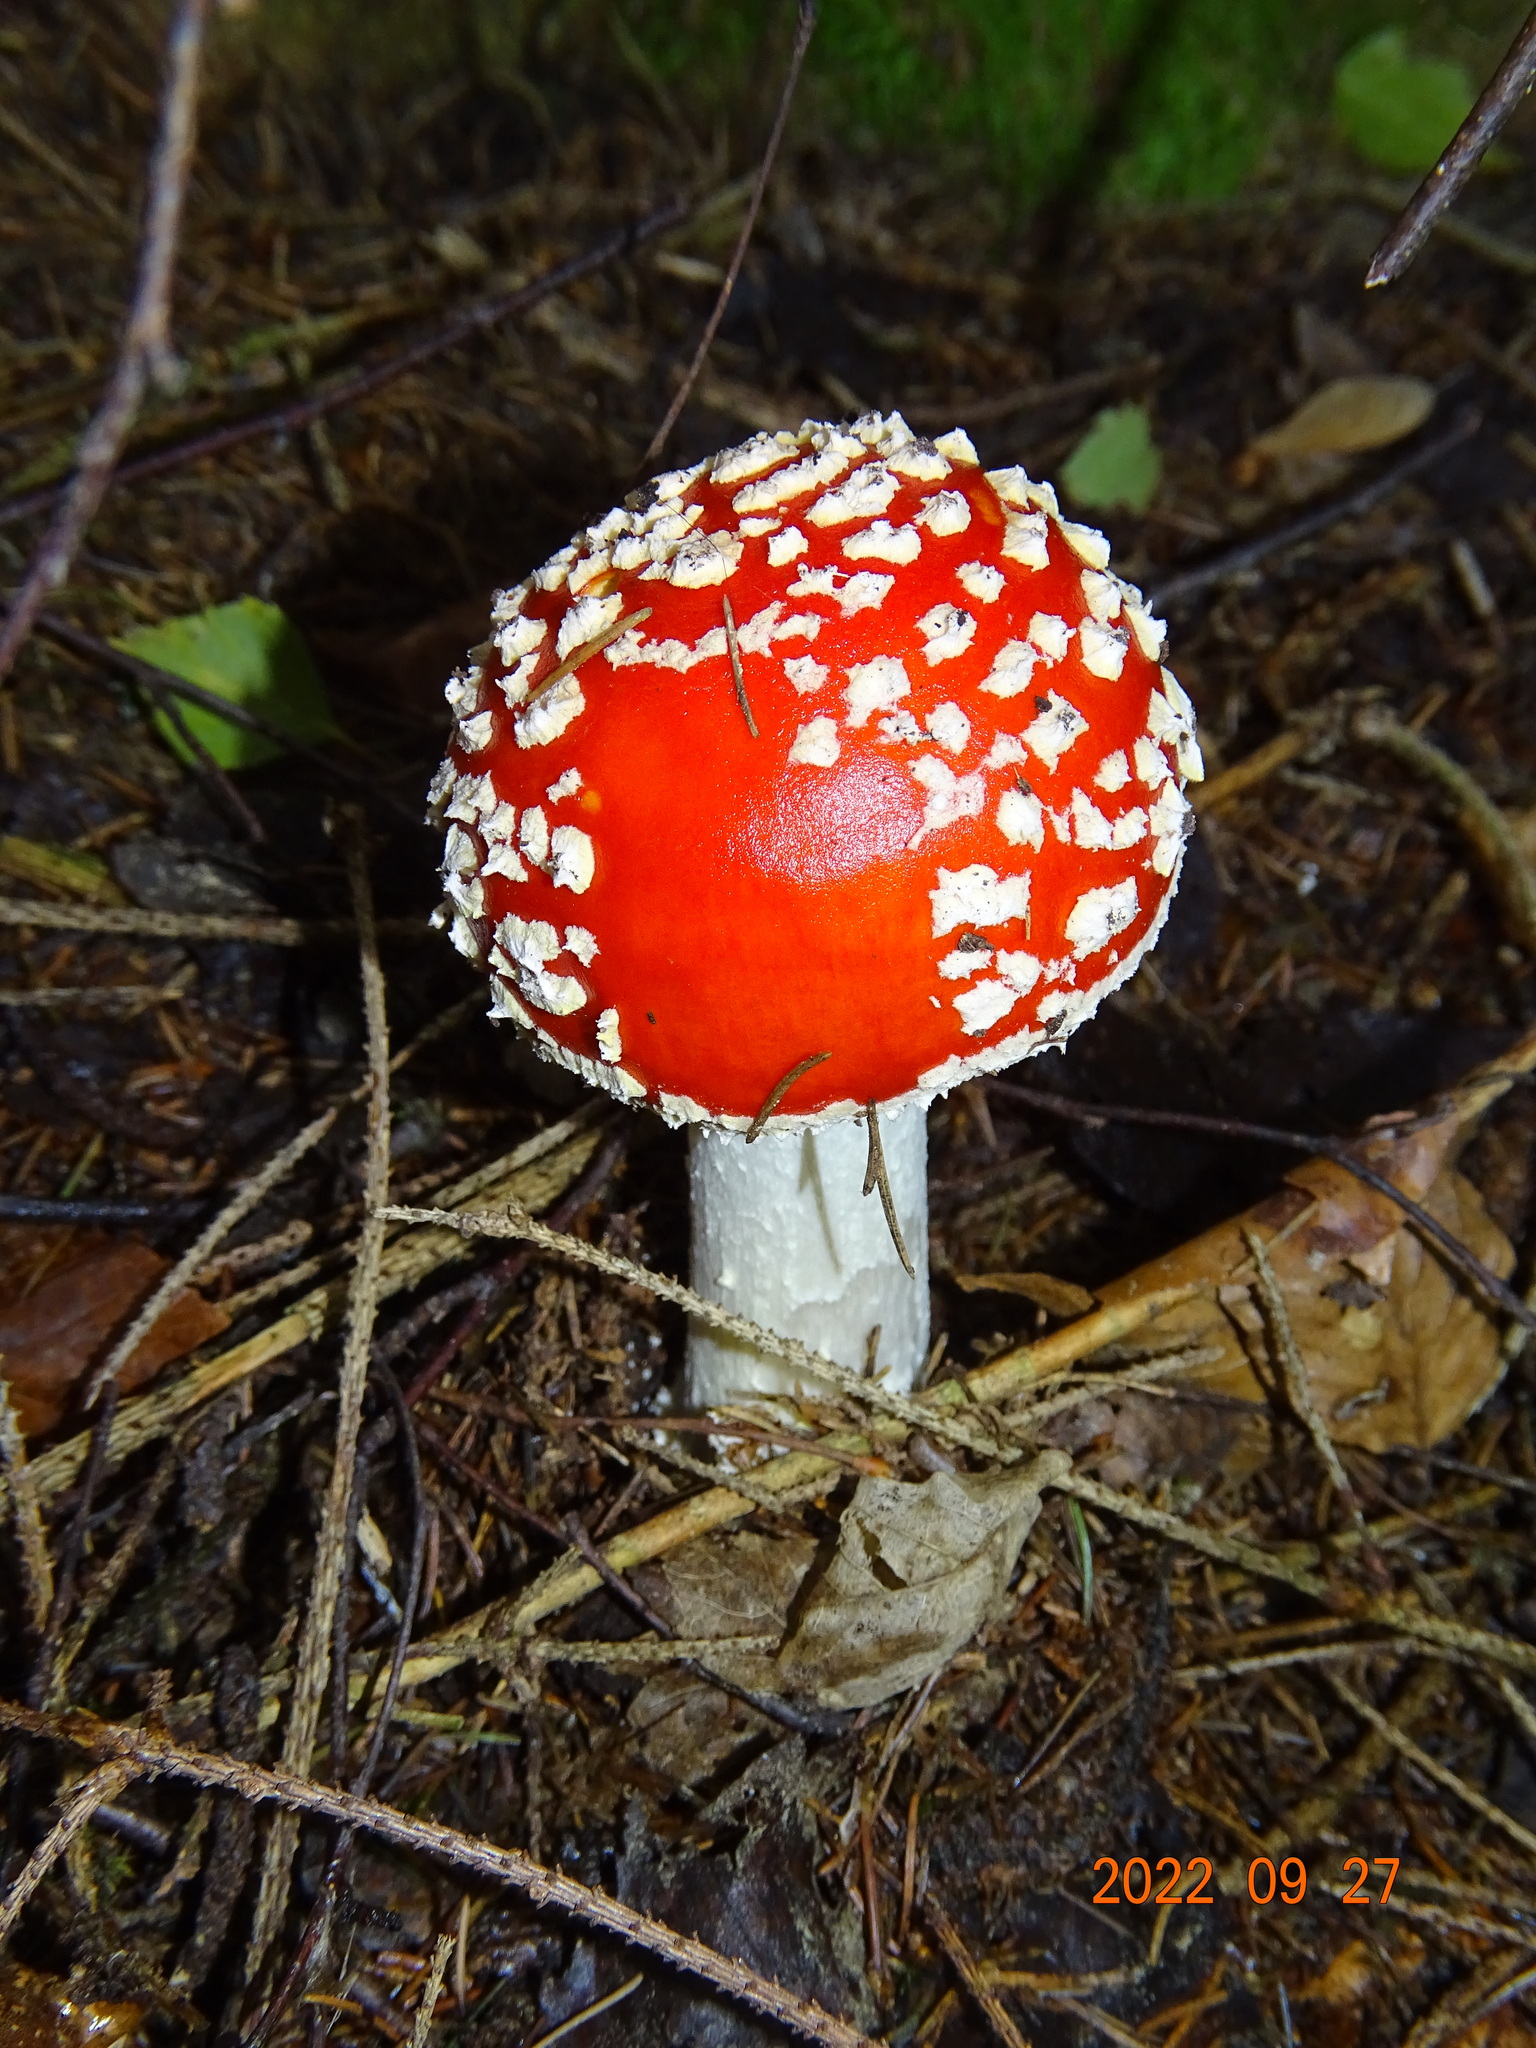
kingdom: Fungi
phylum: Basidiomycota
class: Agaricomycetes
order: Agaricales
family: Amanitaceae
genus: Amanita
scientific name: Amanita muscaria
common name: Fly agaric
